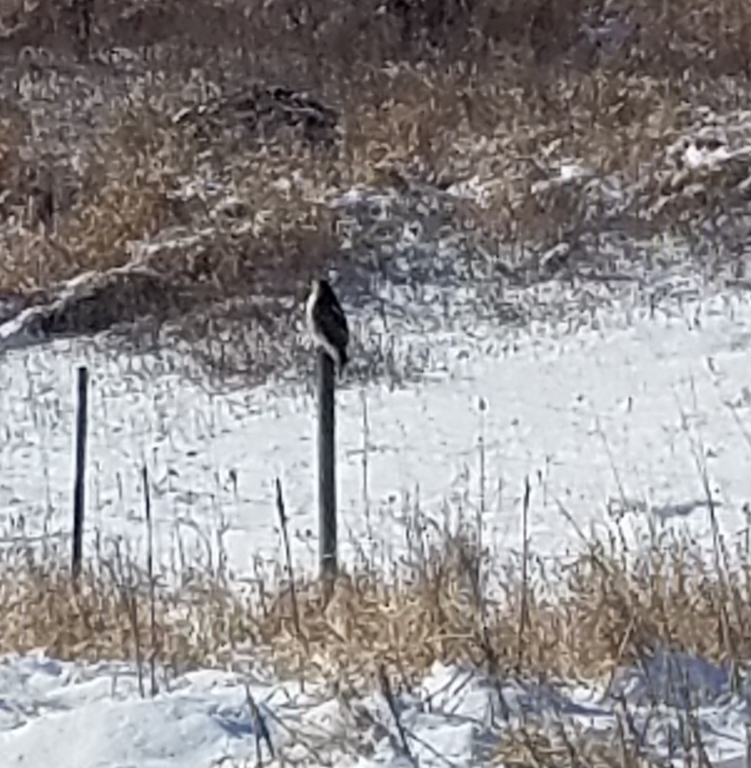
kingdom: Animalia
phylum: Chordata
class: Aves
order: Accipitriformes
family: Accipitridae
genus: Buteo
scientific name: Buteo jamaicensis
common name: Red-tailed hawk
